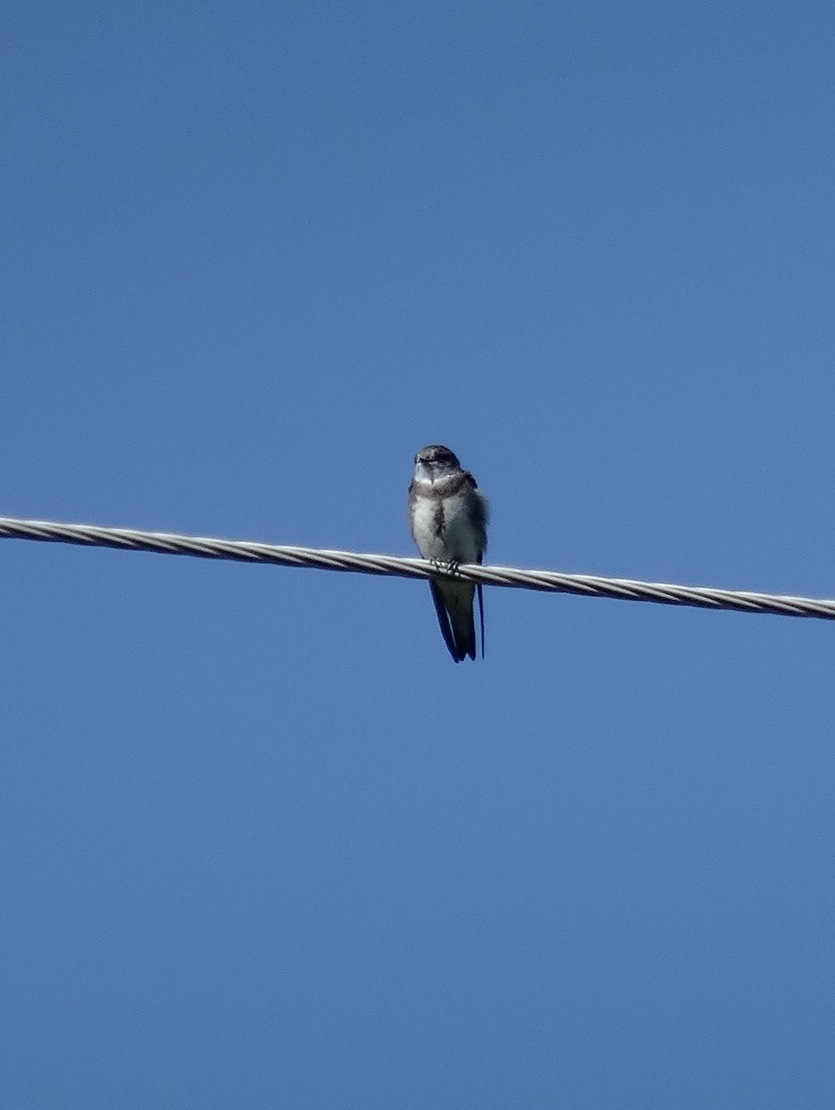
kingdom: Animalia
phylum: Chordata
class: Aves
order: Passeriformes
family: Hirundinidae
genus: Riparia
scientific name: Riparia riparia
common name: Sand martin
